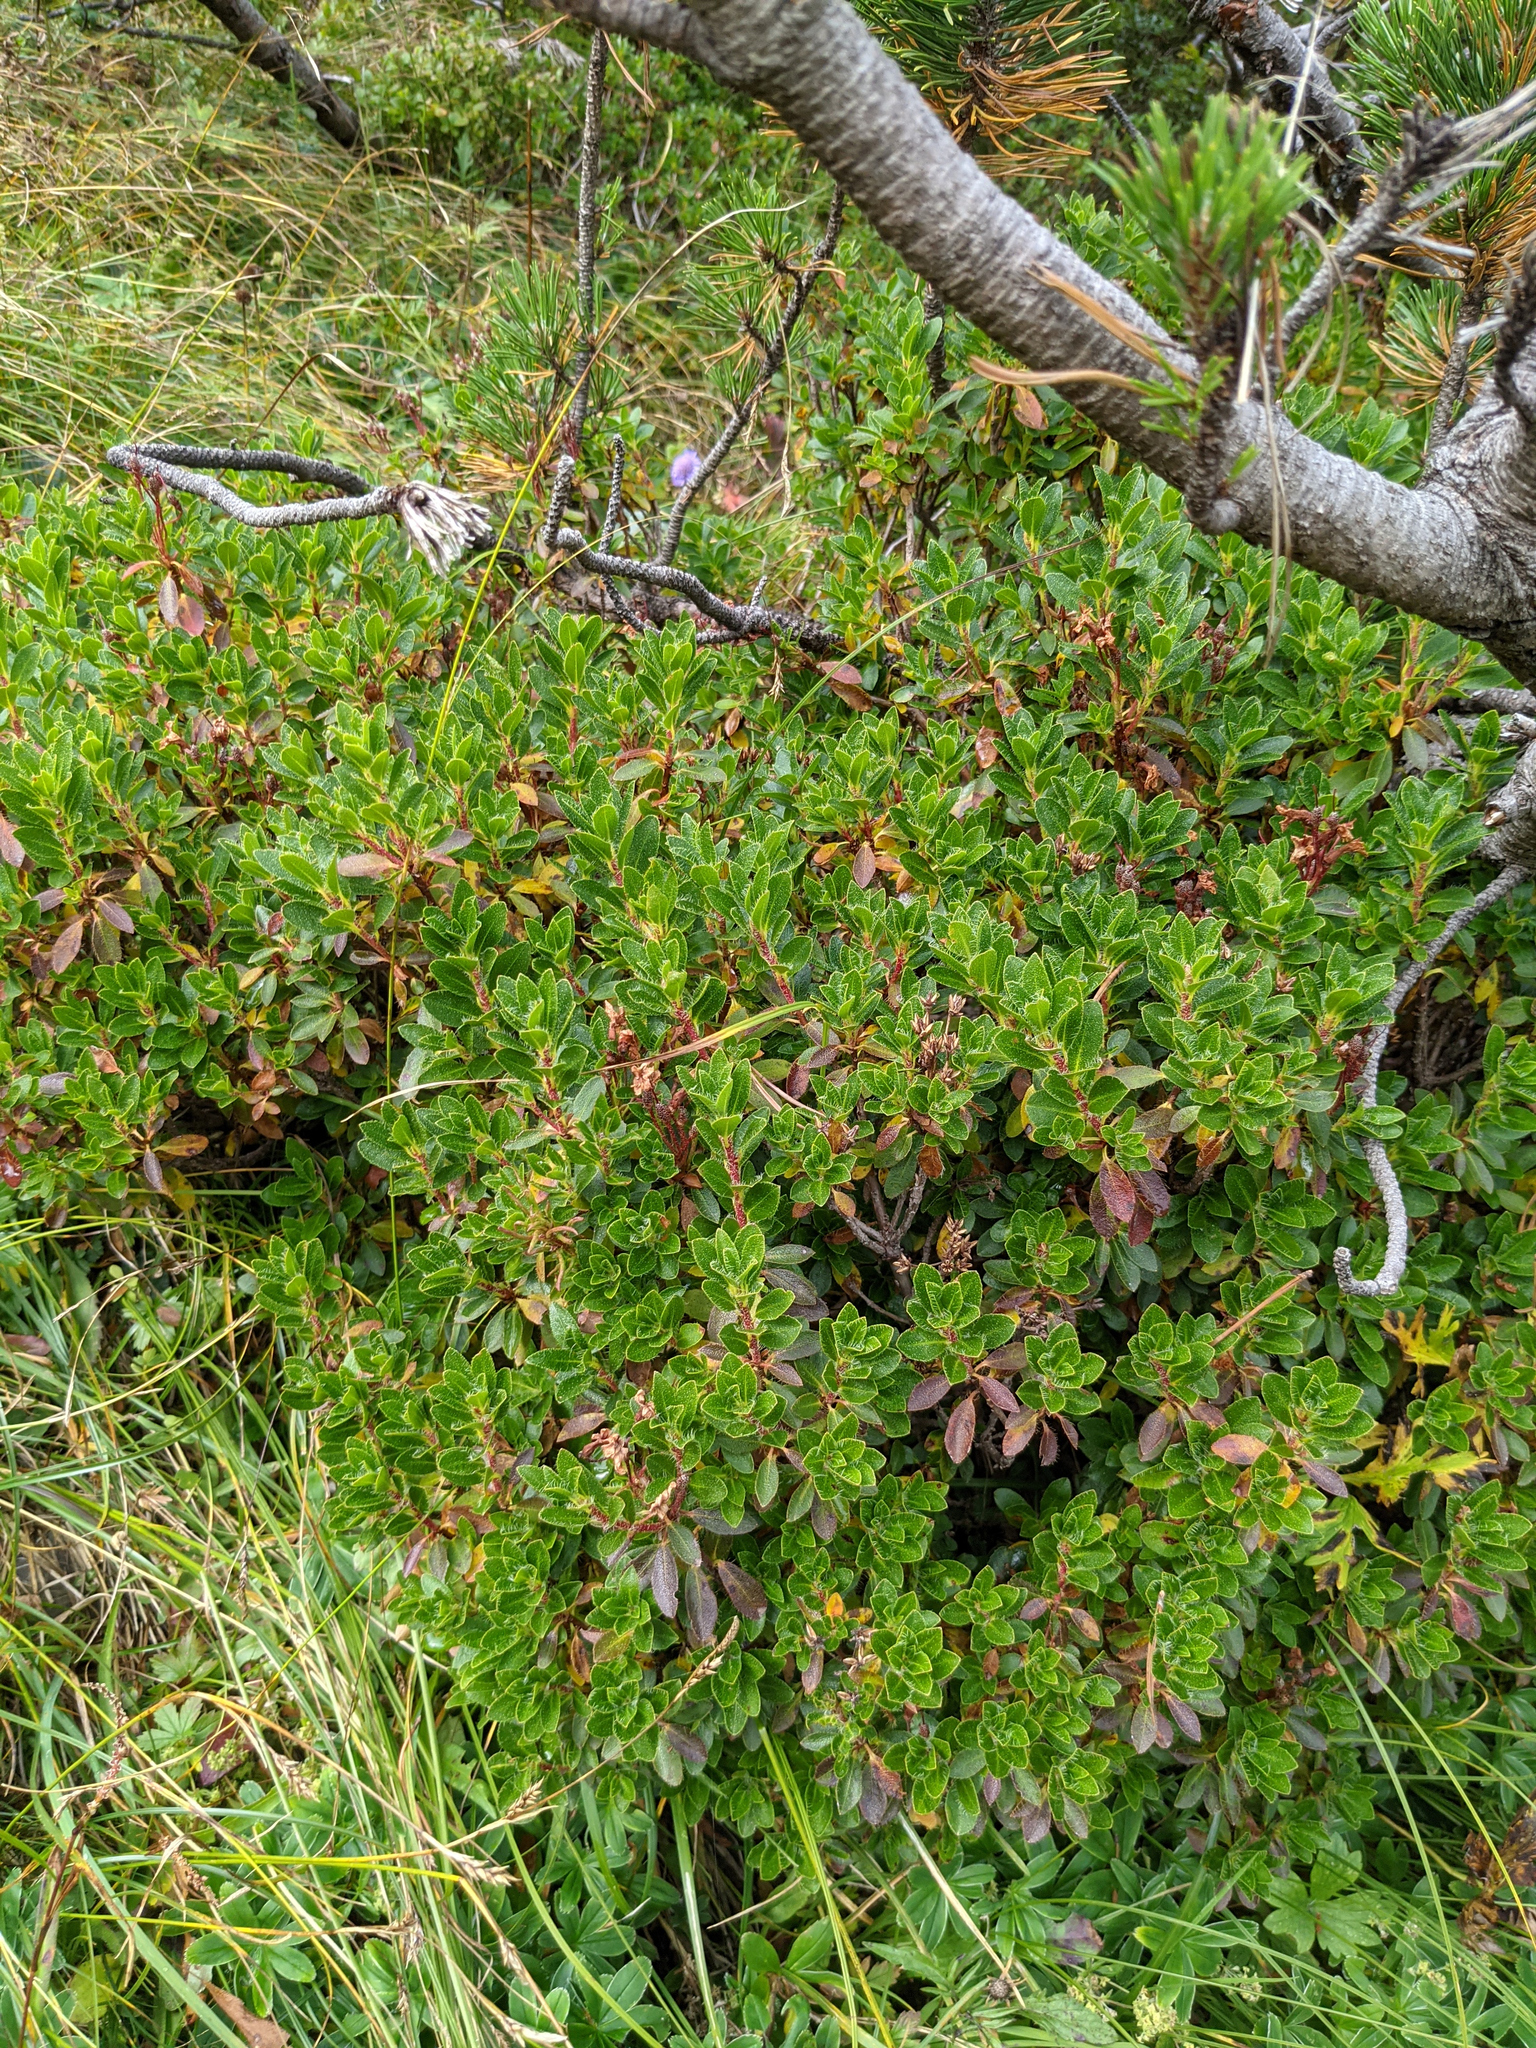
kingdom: Plantae
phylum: Tracheophyta
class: Magnoliopsida
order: Ericales
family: Ericaceae
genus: Rhododendron
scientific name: Rhododendron hirsutum
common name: Hairy alpenrose
